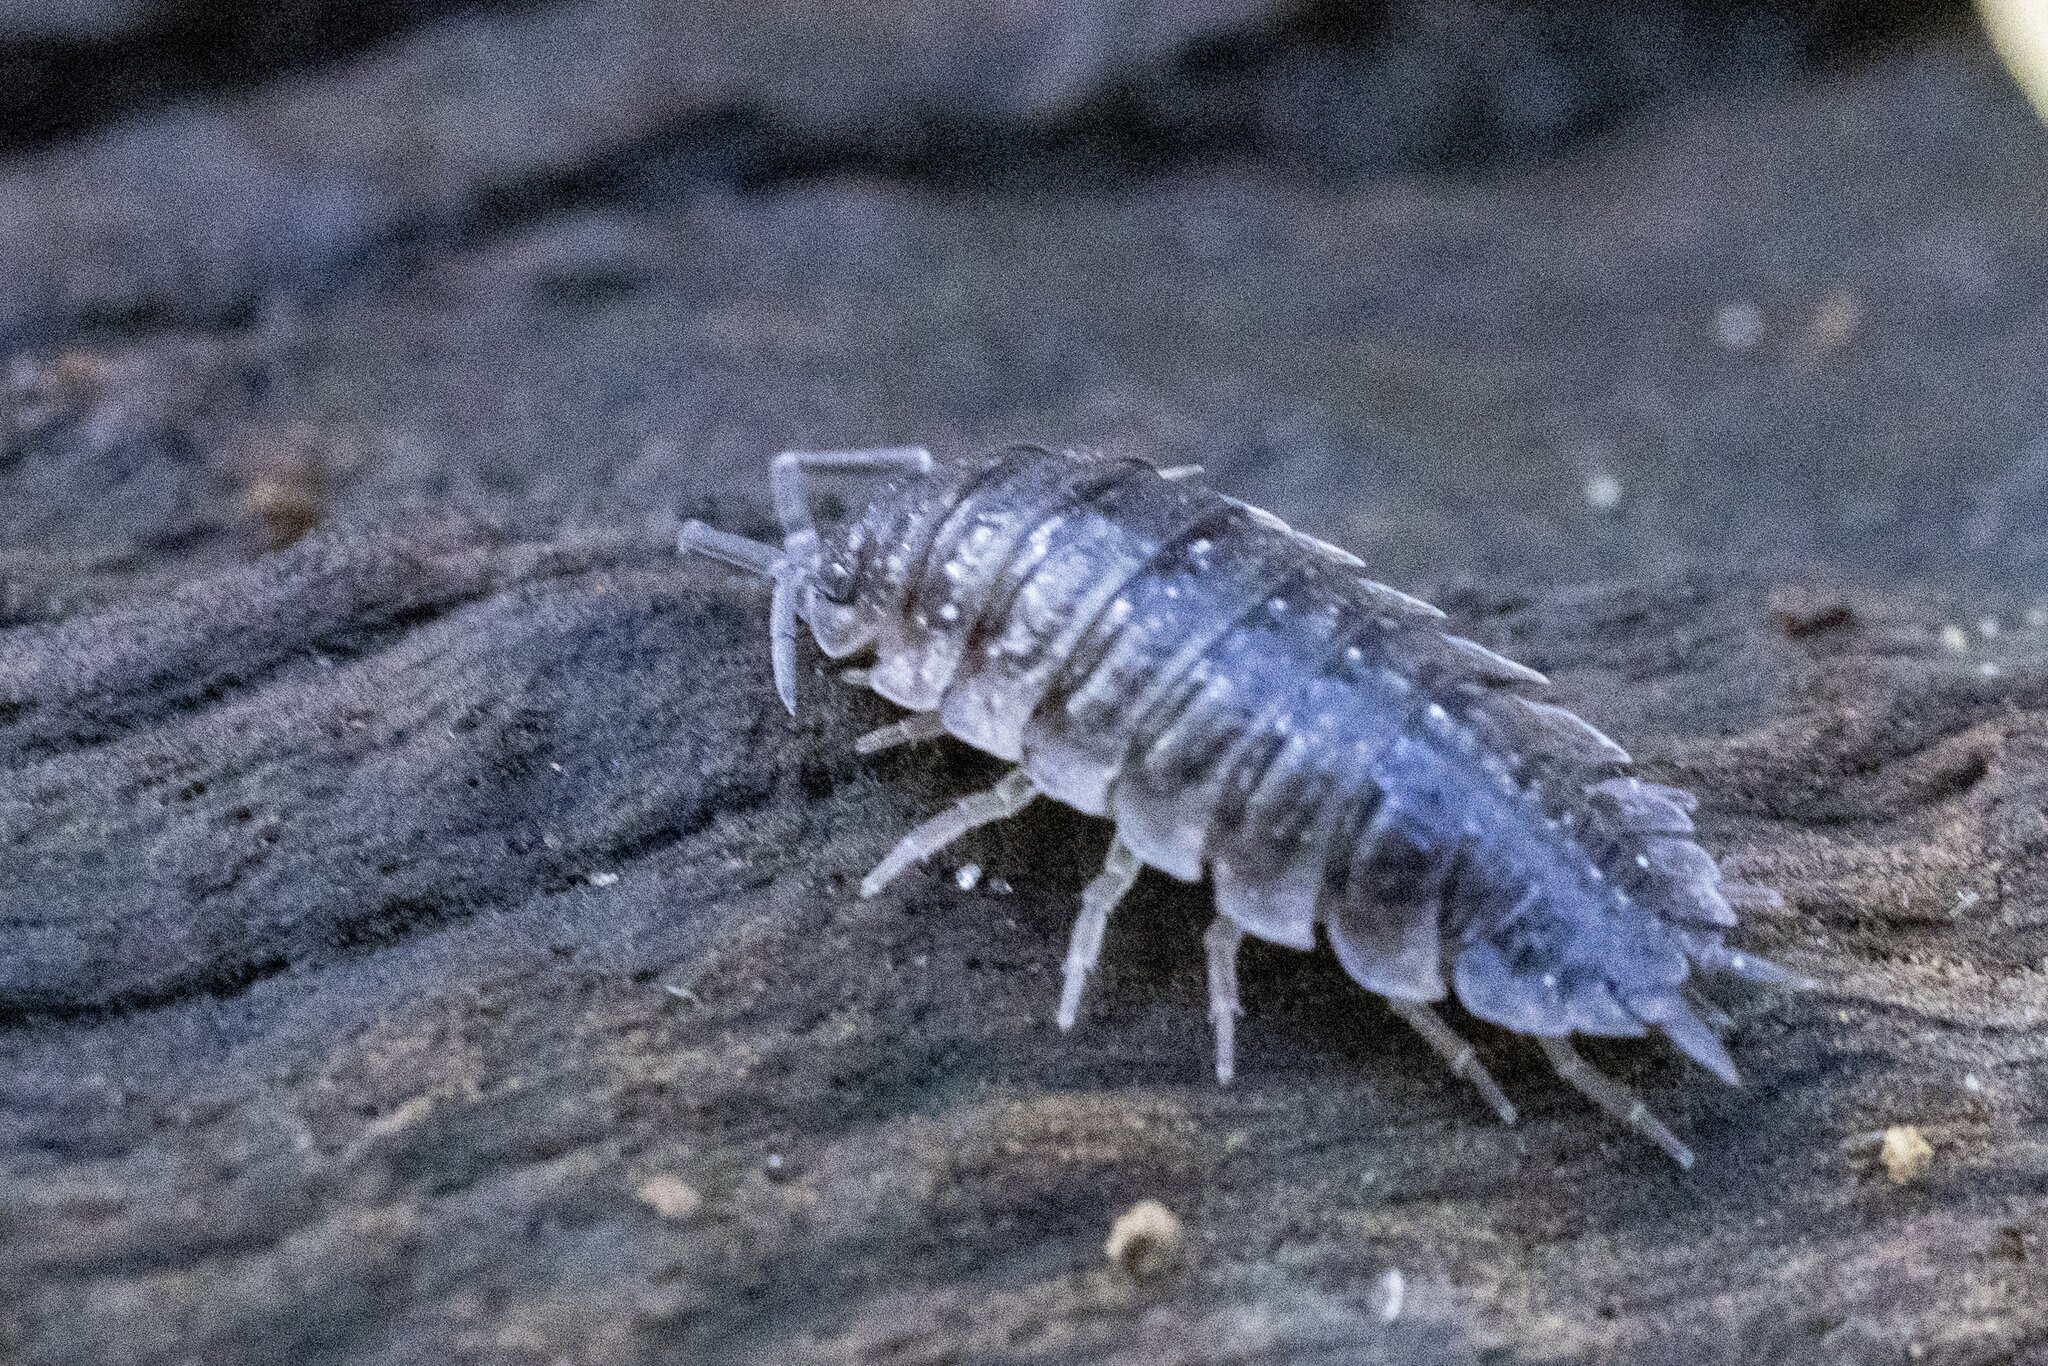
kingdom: Animalia
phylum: Arthropoda
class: Malacostraca
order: Isopoda
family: Porcellionidae
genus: Porcellio
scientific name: Porcellio scaber
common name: Common rough woodlouse
